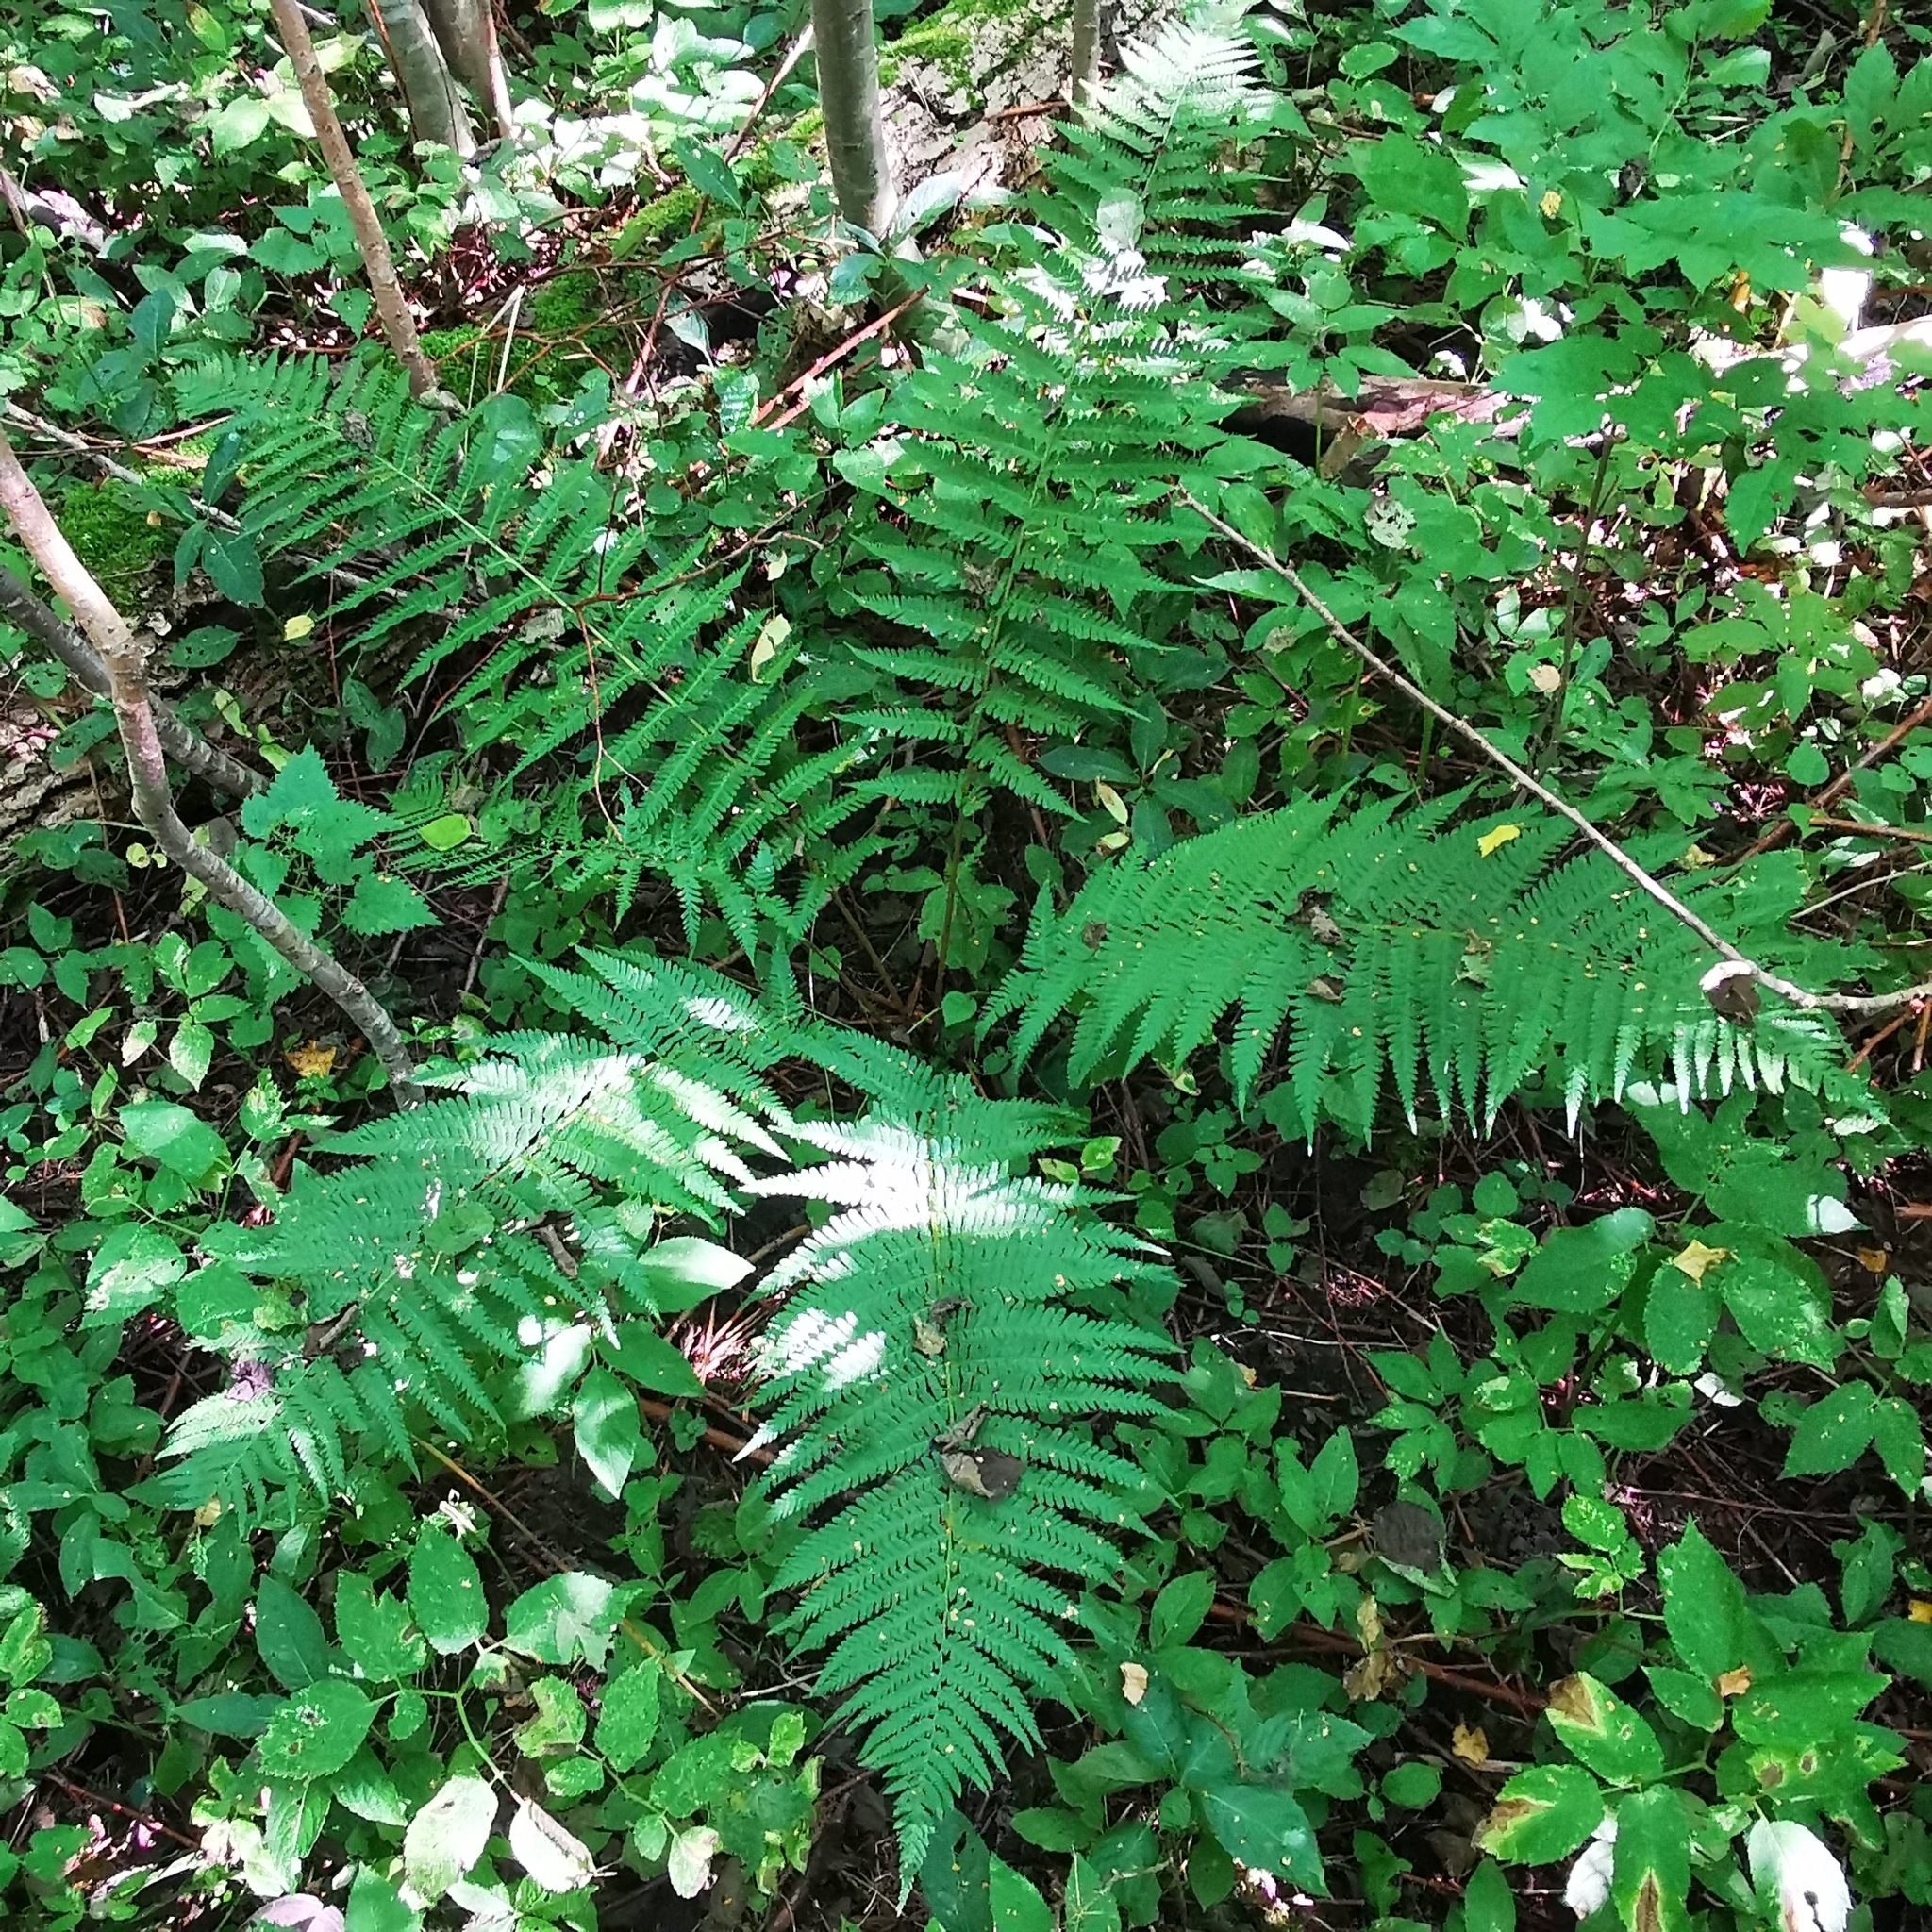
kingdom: Plantae
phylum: Tracheophyta
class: Polypodiopsida
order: Polypodiales
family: Dryopteridaceae
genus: Dryopteris
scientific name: Dryopteris filix-mas
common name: Male fern
